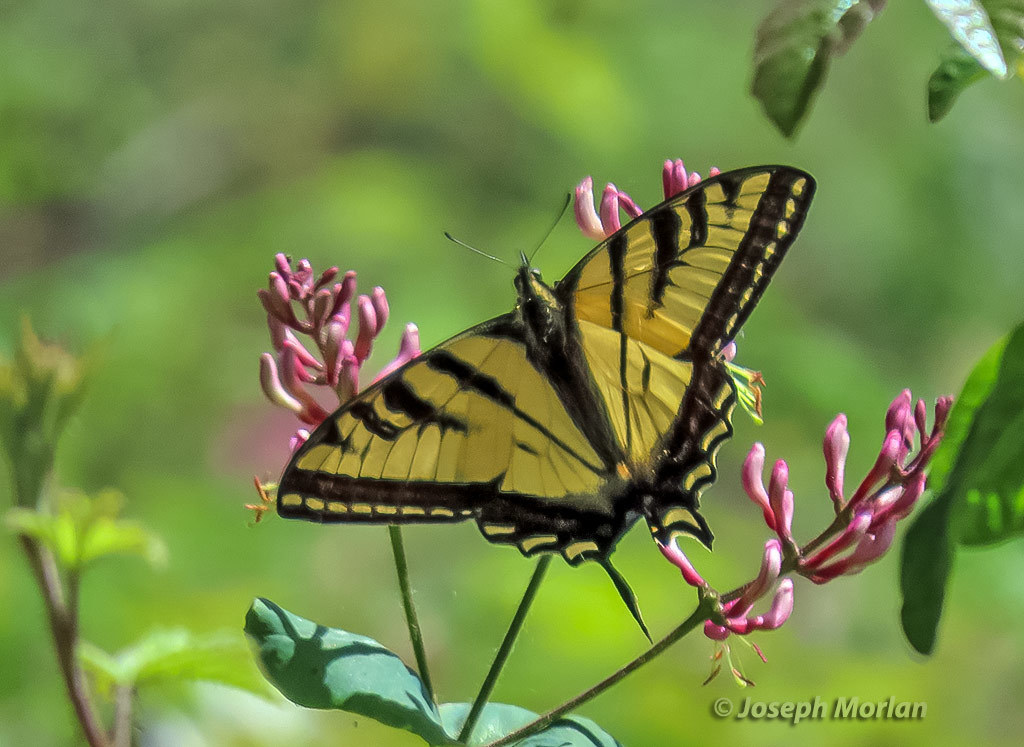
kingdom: Animalia
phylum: Arthropoda
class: Insecta
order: Lepidoptera
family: Papilionidae
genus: Papilio
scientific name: Papilio rutulus
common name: Western tiger swallowtail
